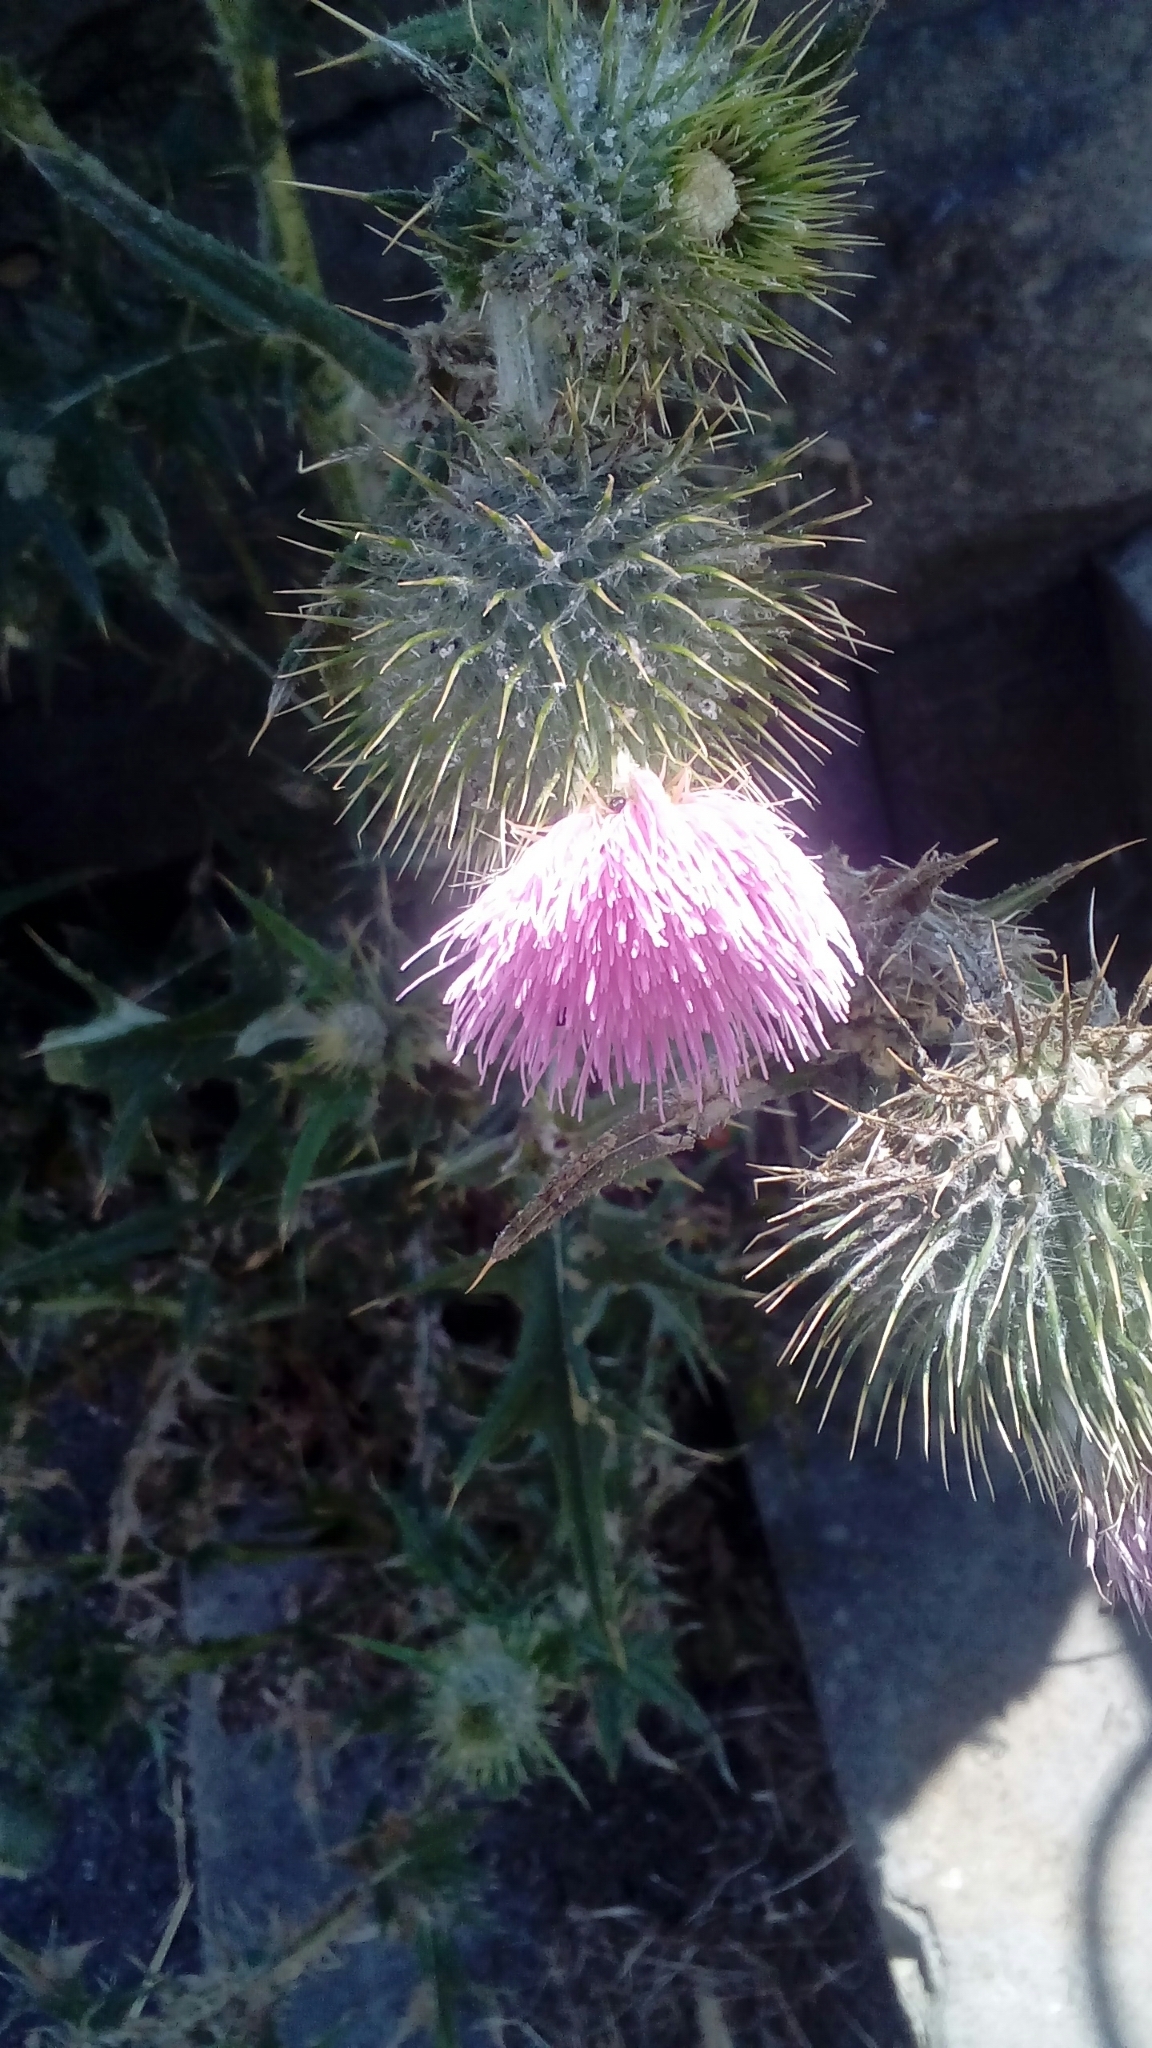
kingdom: Plantae
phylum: Tracheophyta
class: Magnoliopsida
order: Asterales
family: Asteraceae
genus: Cirsium
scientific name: Cirsium vulgare
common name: Bull thistle
